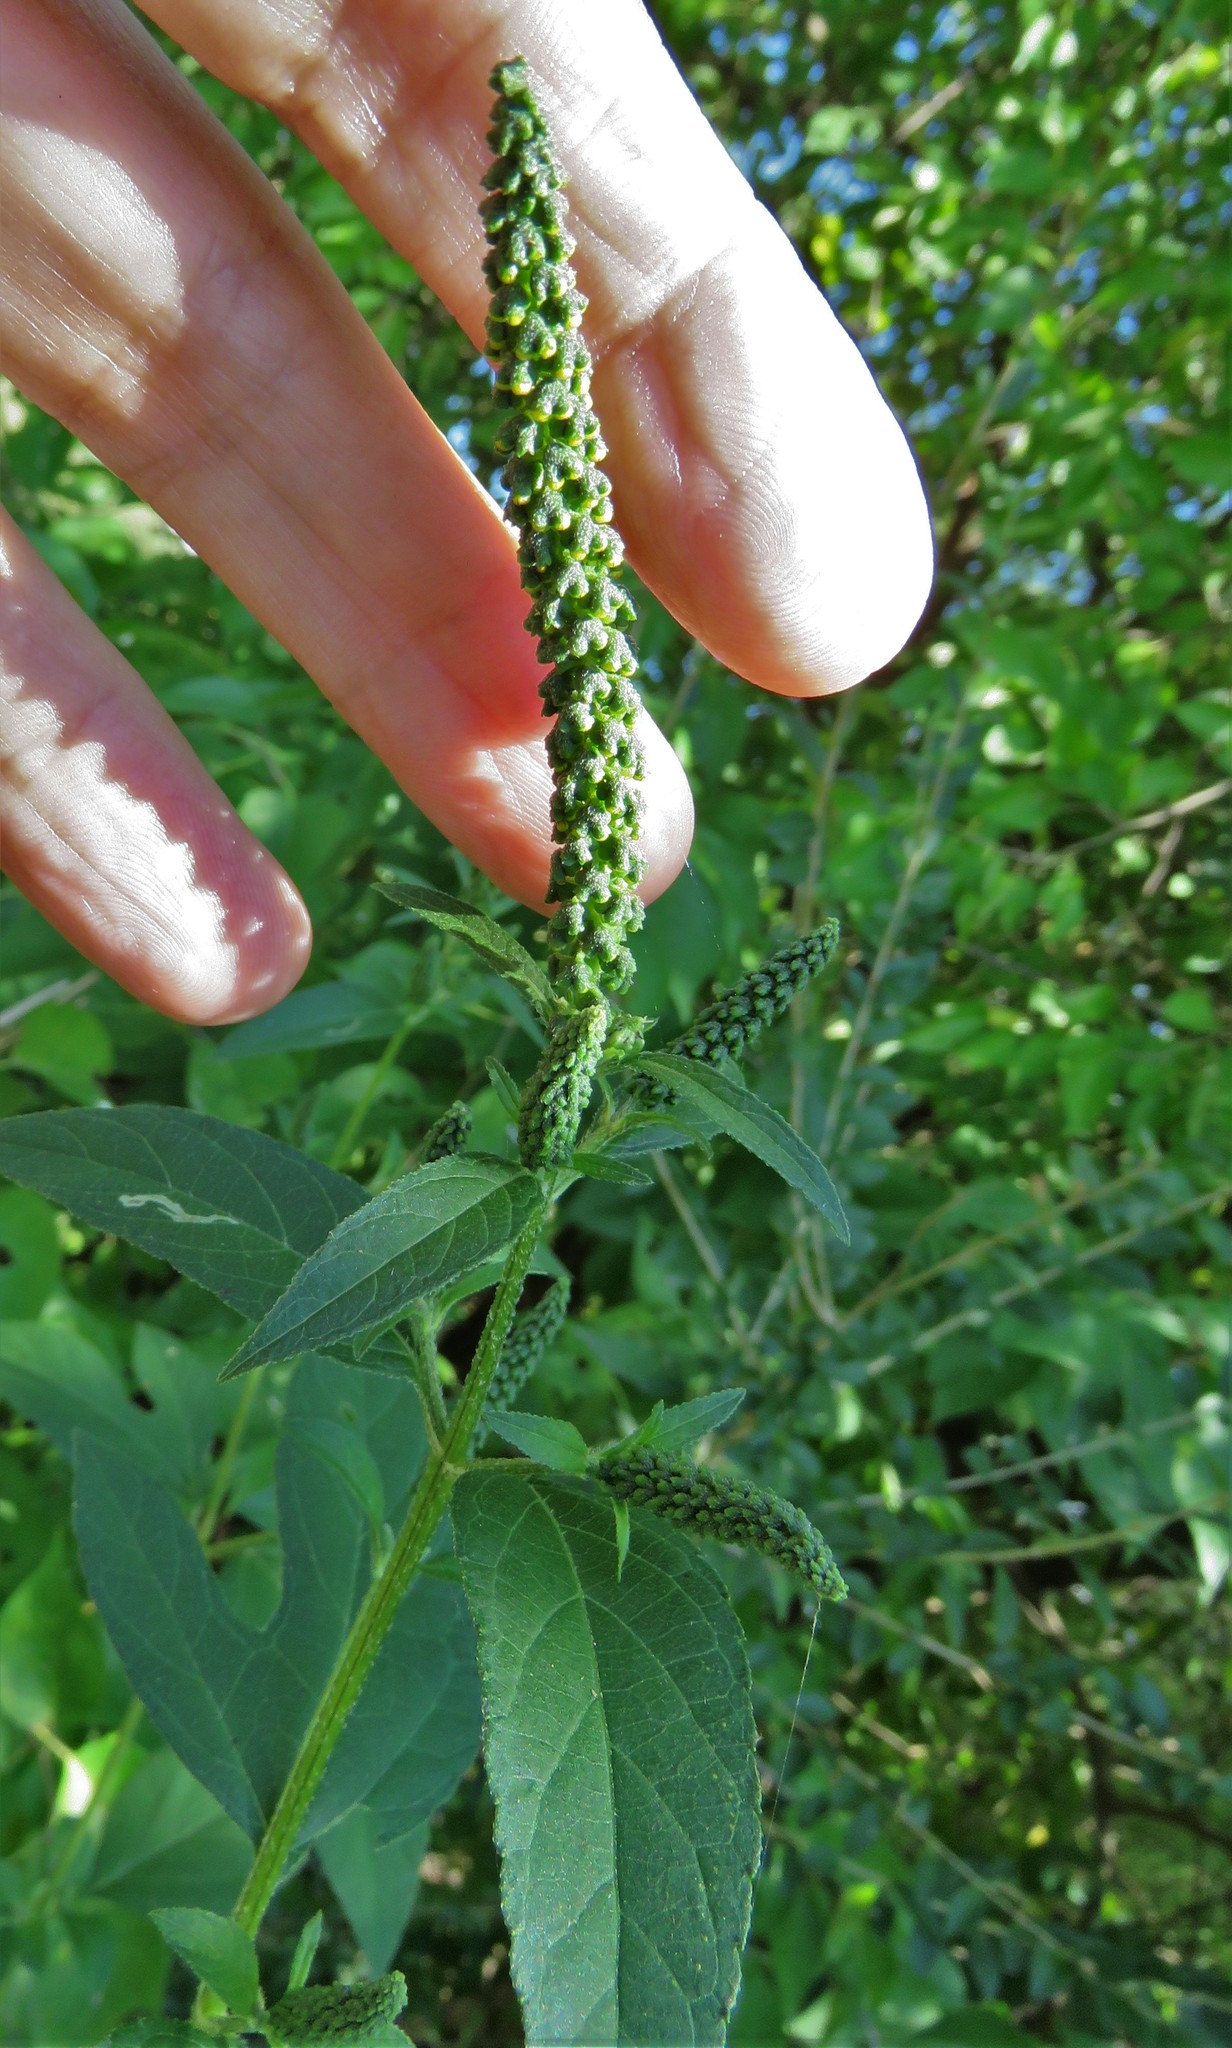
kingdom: Plantae
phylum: Tracheophyta
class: Magnoliopsida
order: Asterales
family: Asteraceae
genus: Ambrosia
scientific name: Ambrosia trifida
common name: Giant ragweed
